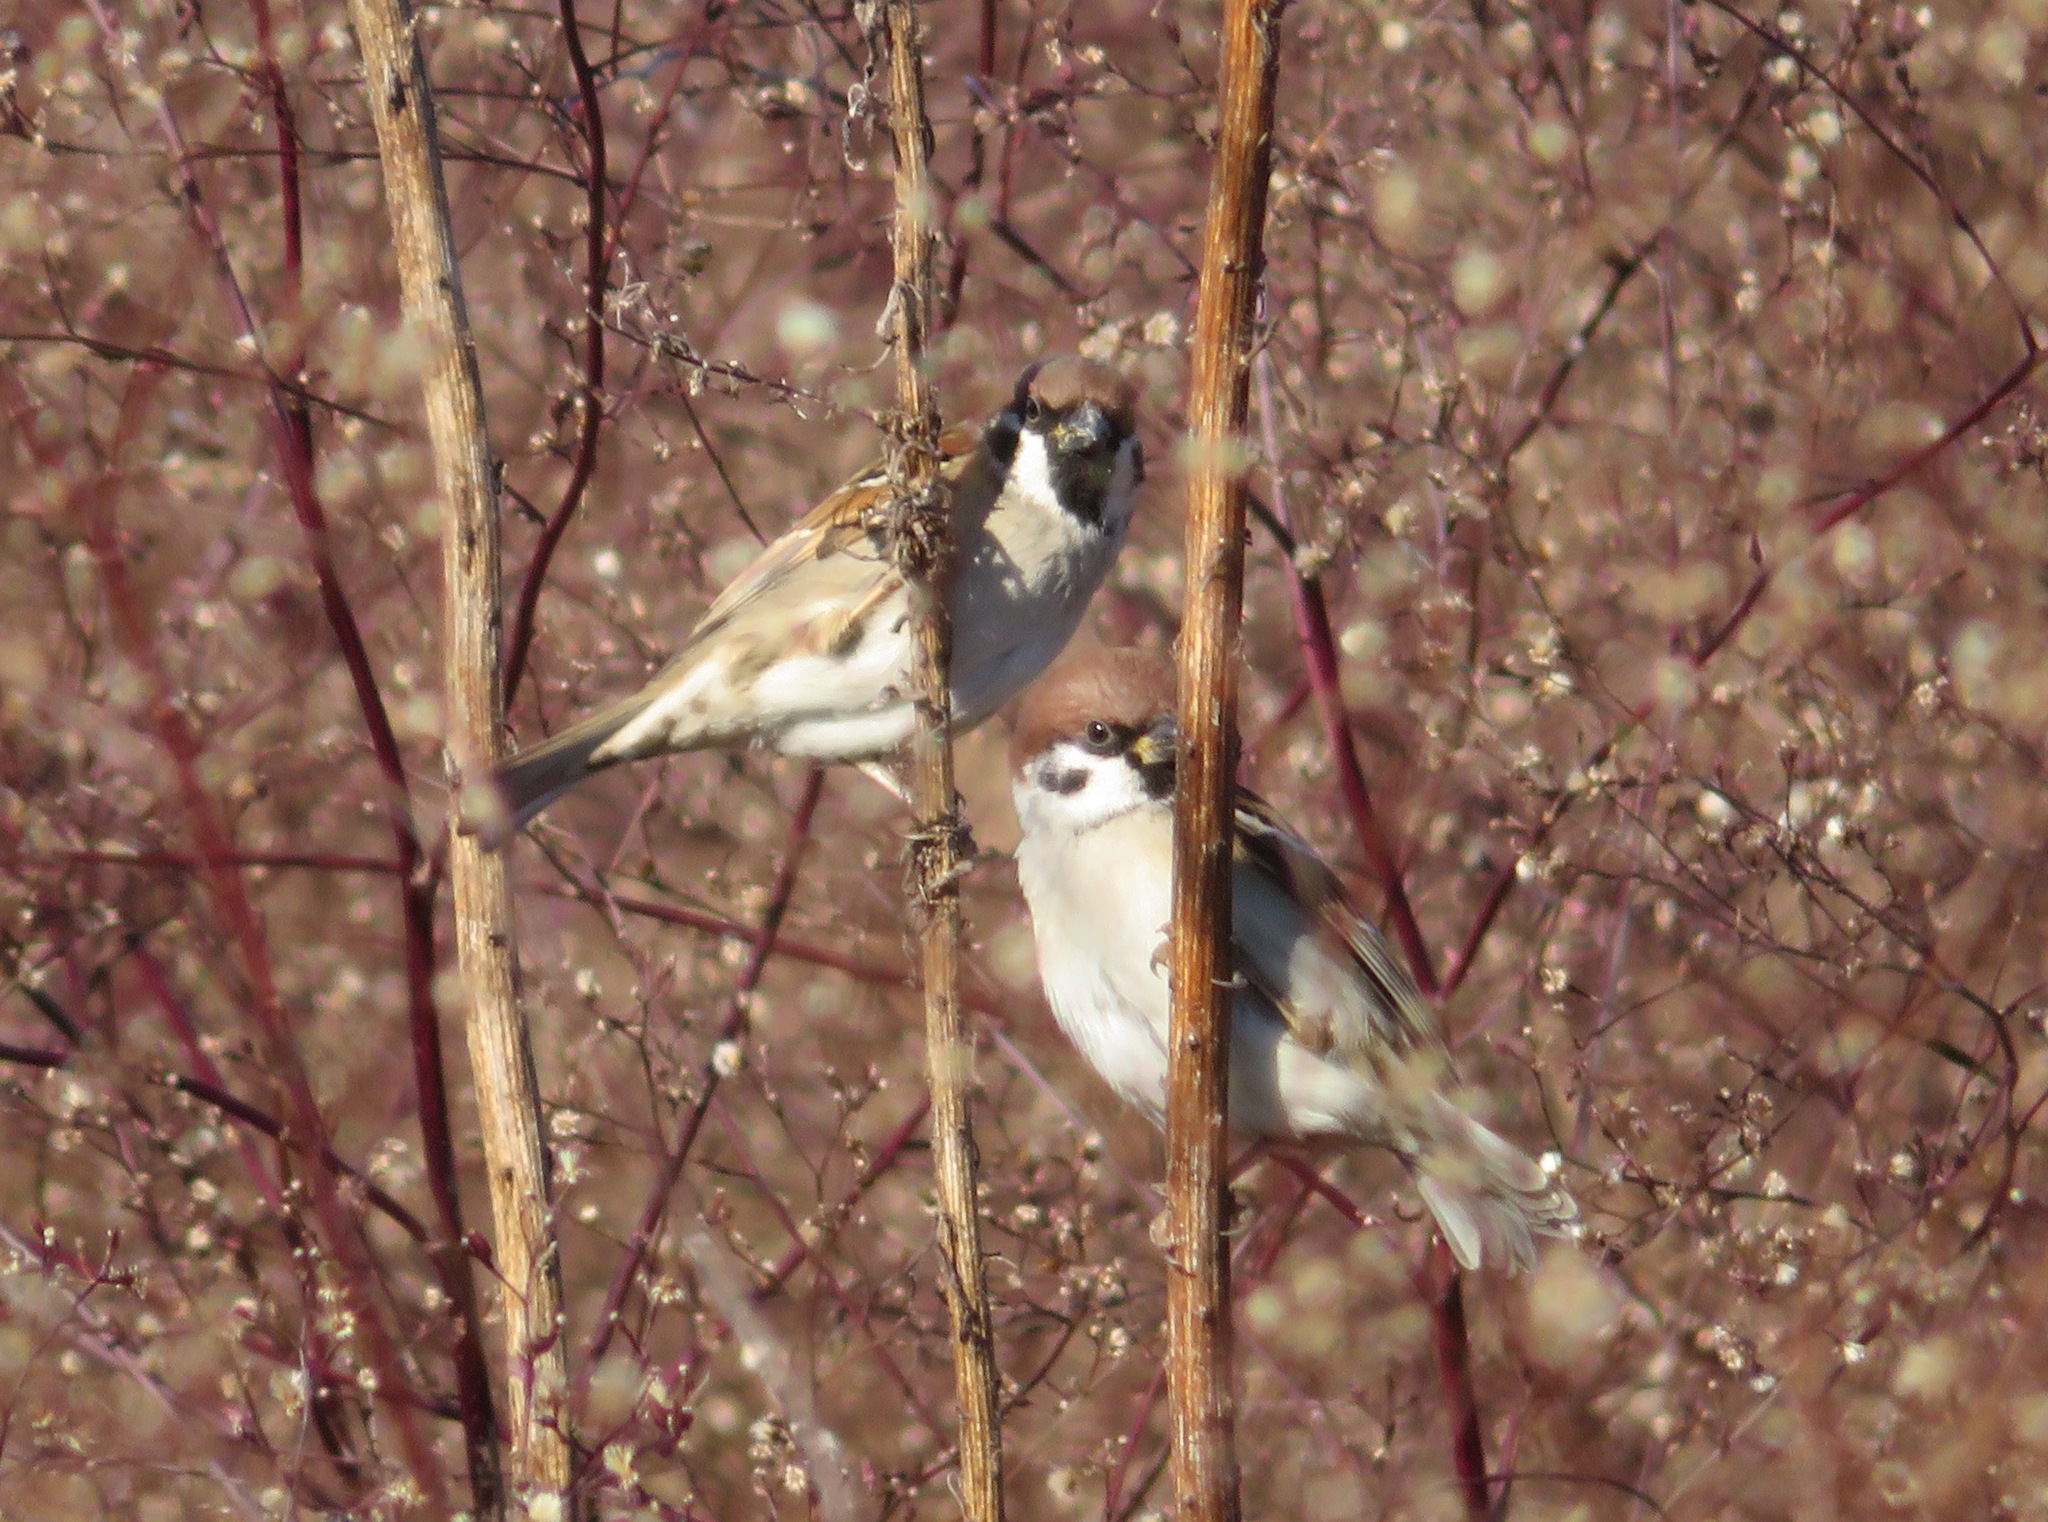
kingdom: Animalia
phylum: Chordata
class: Aves
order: Passeriformes
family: Passeridae
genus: Passer
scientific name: Passer montanus
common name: Eurasian tree sparrow
